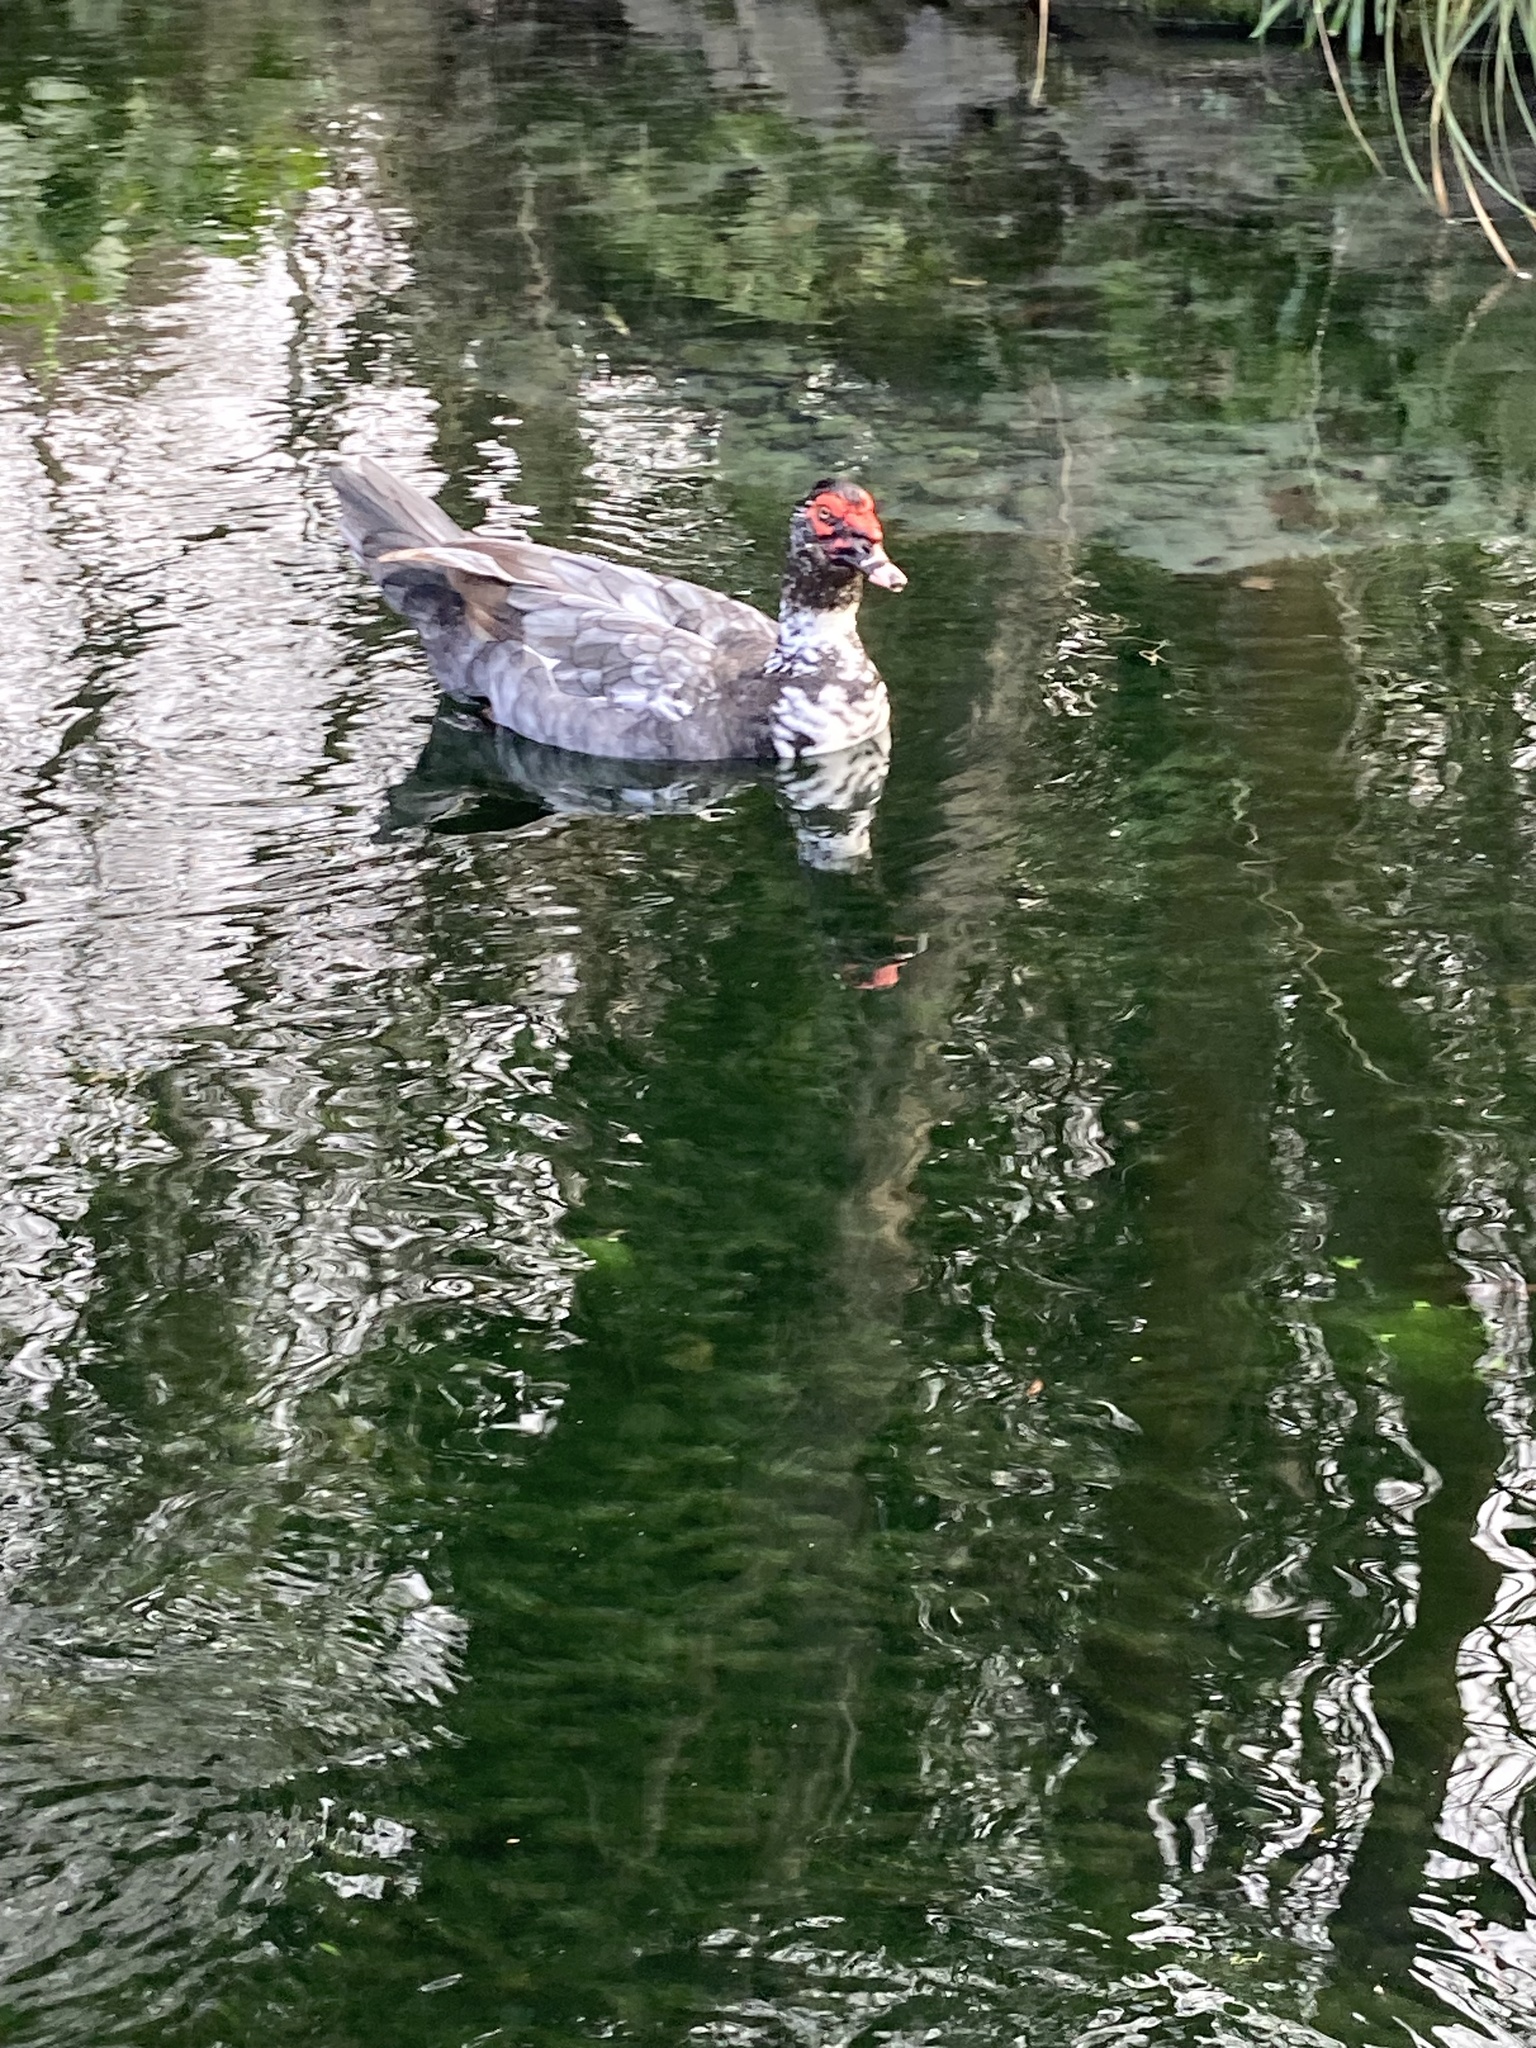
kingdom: Animalia
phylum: Chordata
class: Aves
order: Anseriformes
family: Anatidae
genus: Cairina
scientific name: Cairina moschata
